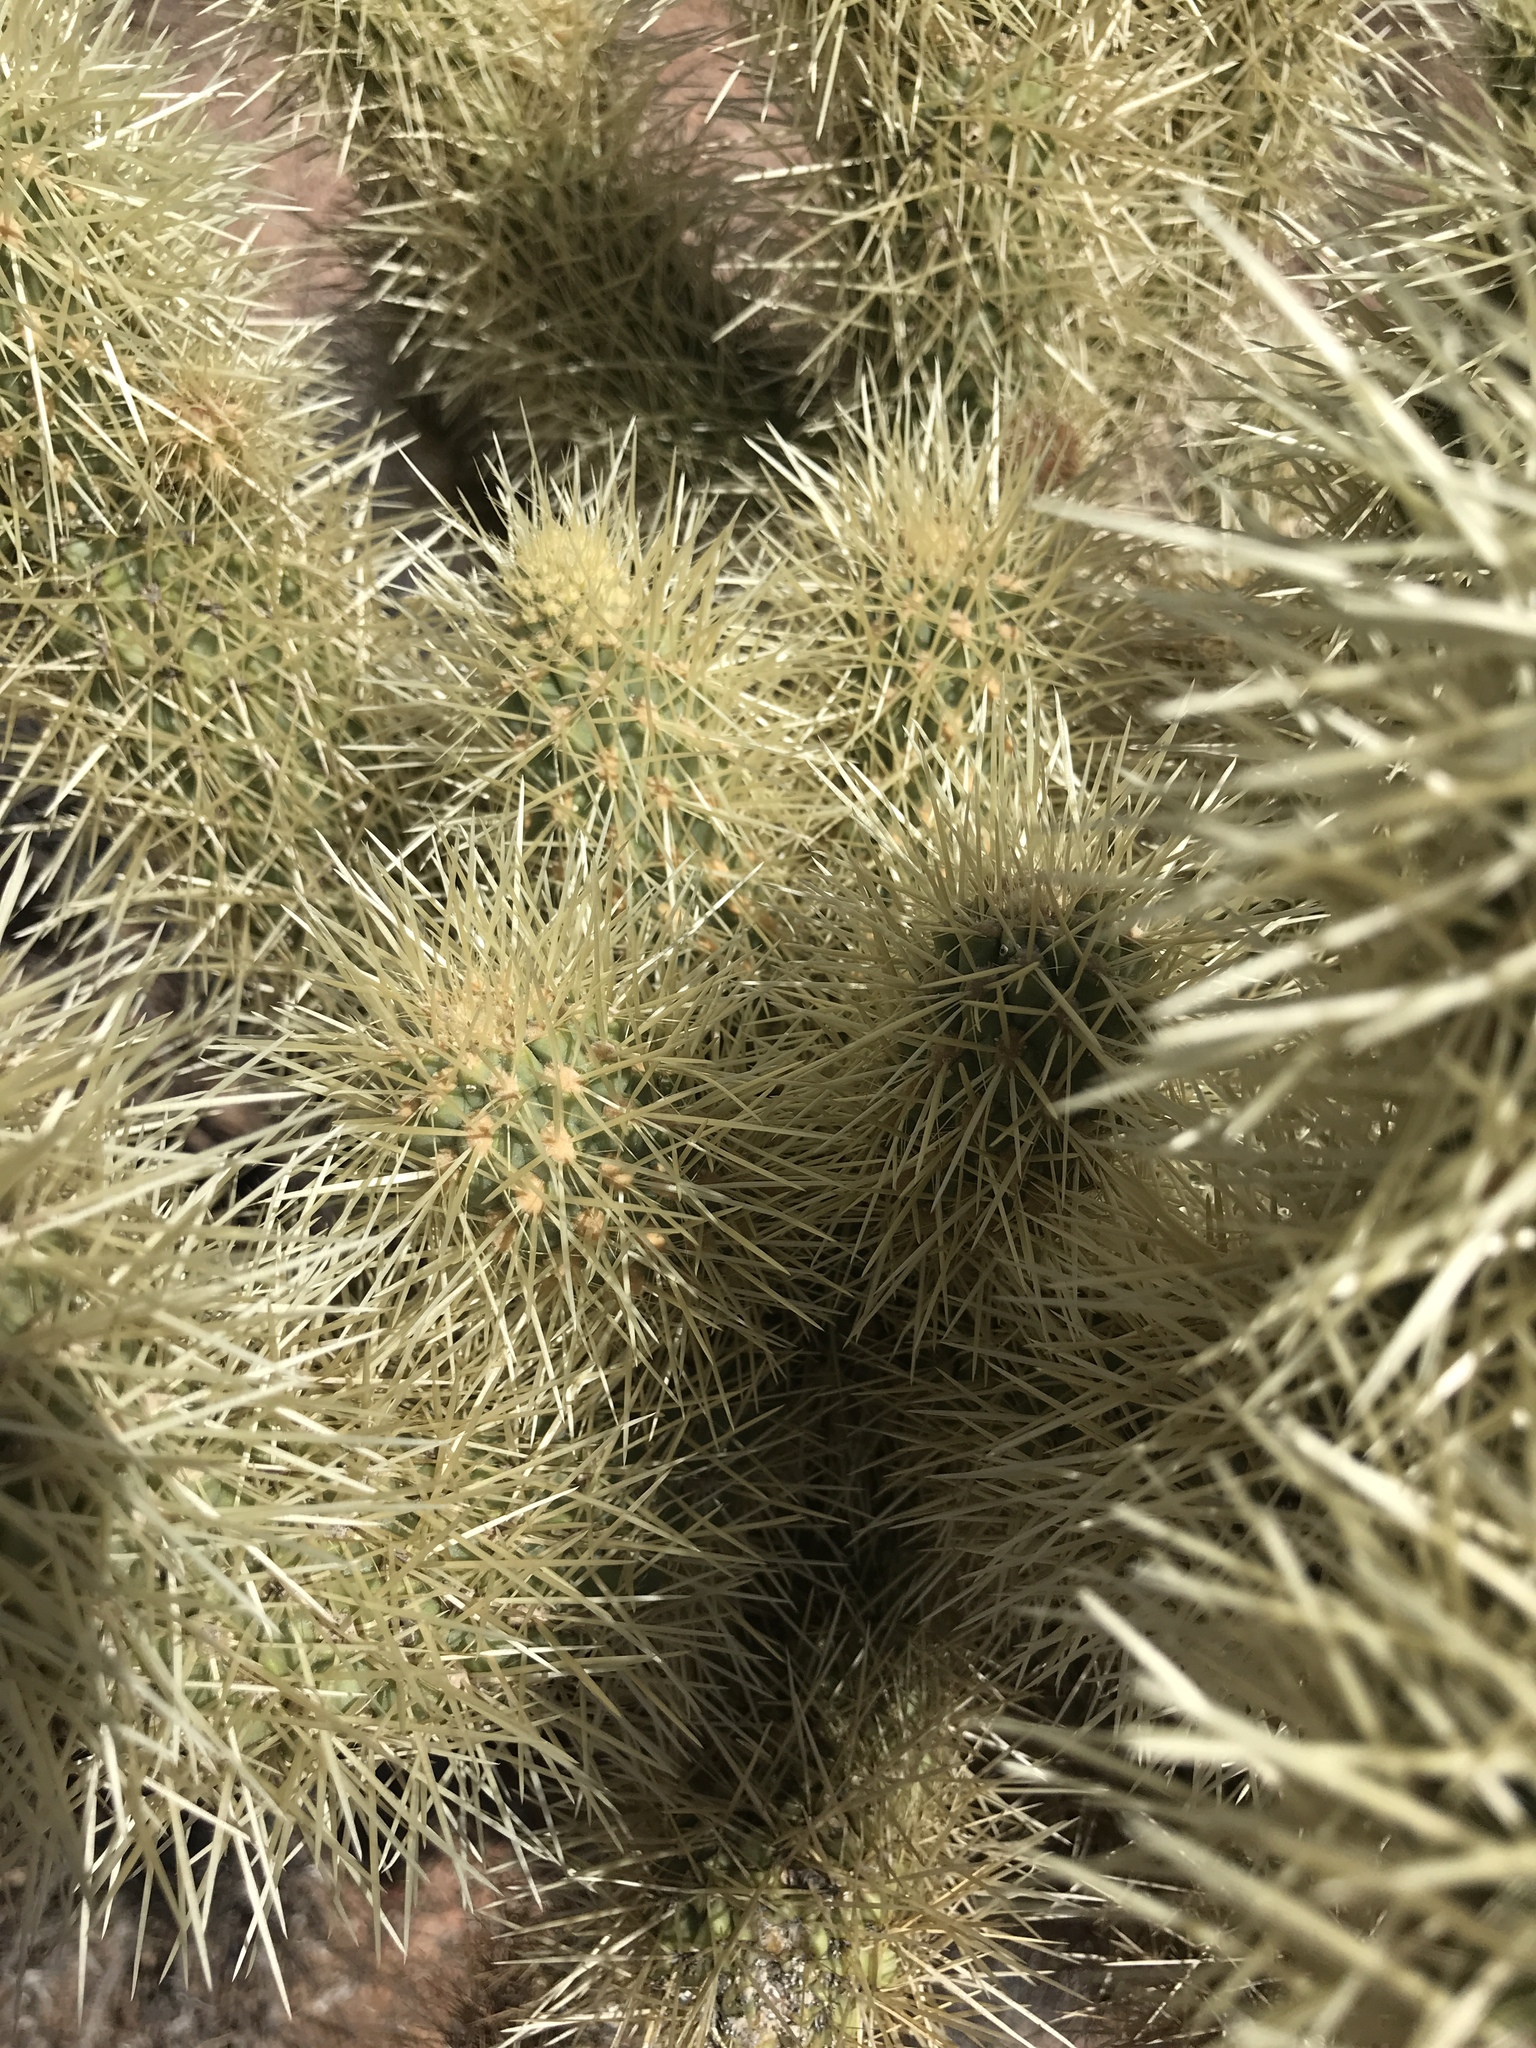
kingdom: Plantae
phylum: Tracheophyta
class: Magnoliopsida
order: Caryophyllales
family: Cactaceae
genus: Cylindropuntia
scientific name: Cylindropuntia fosbergii
